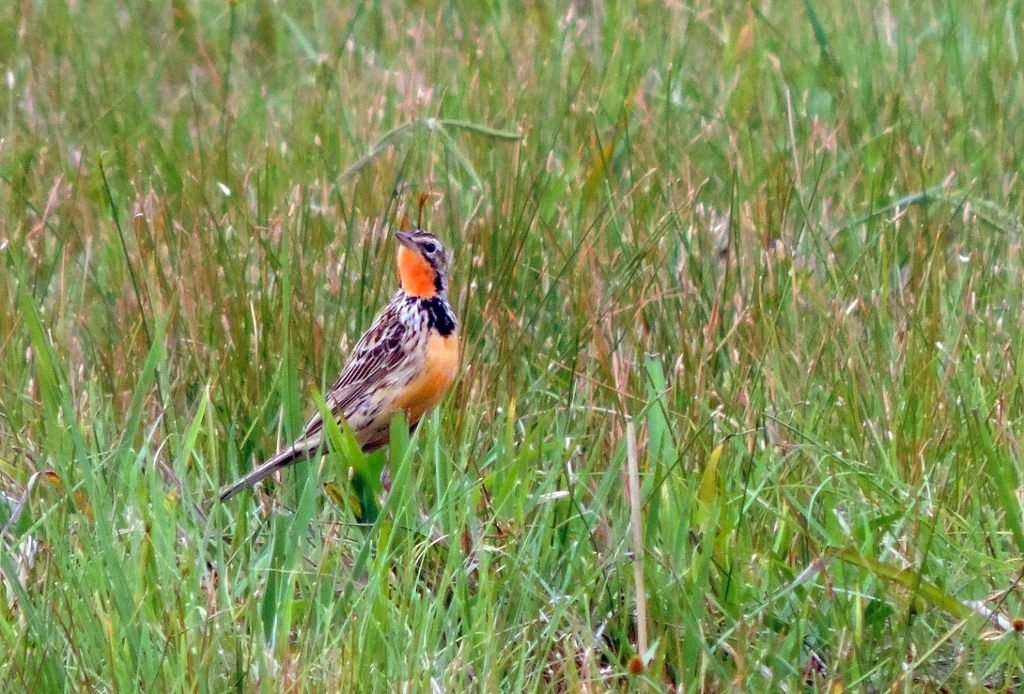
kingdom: Animalia
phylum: Chordata
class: Aves
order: Passeriformes
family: Motacillidae
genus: Macronyx
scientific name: Macronyx ameliae
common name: Rosy-throated longclaw
